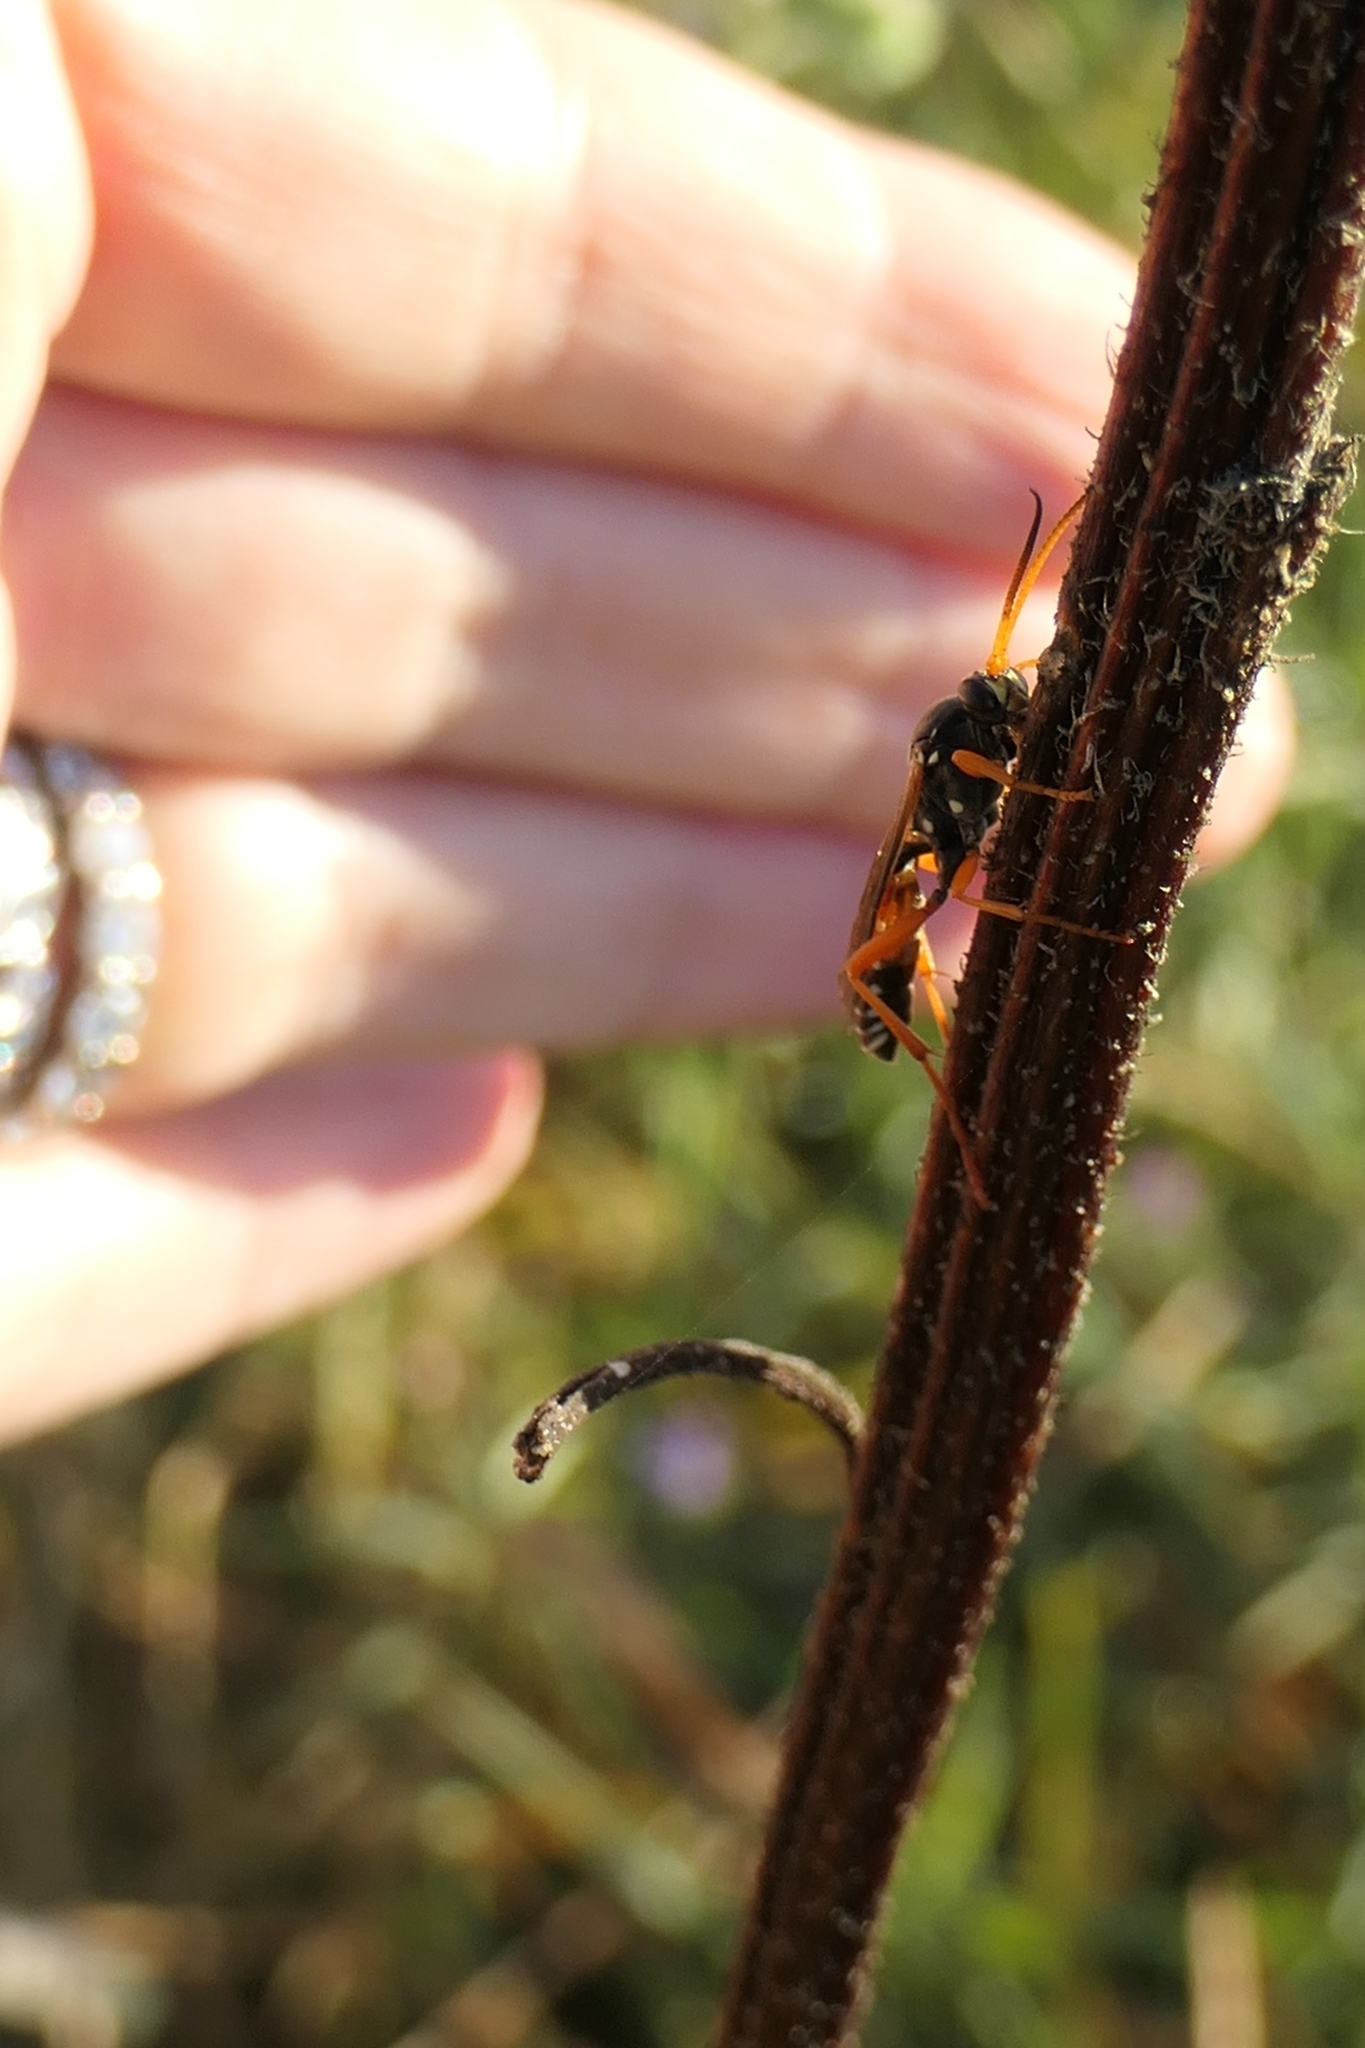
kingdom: Animalia
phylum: Arthropoda
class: Insecta
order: Hymenoptera
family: Ichneumonidae
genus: Eutanyacra
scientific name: Eutanyacra licitatoria
